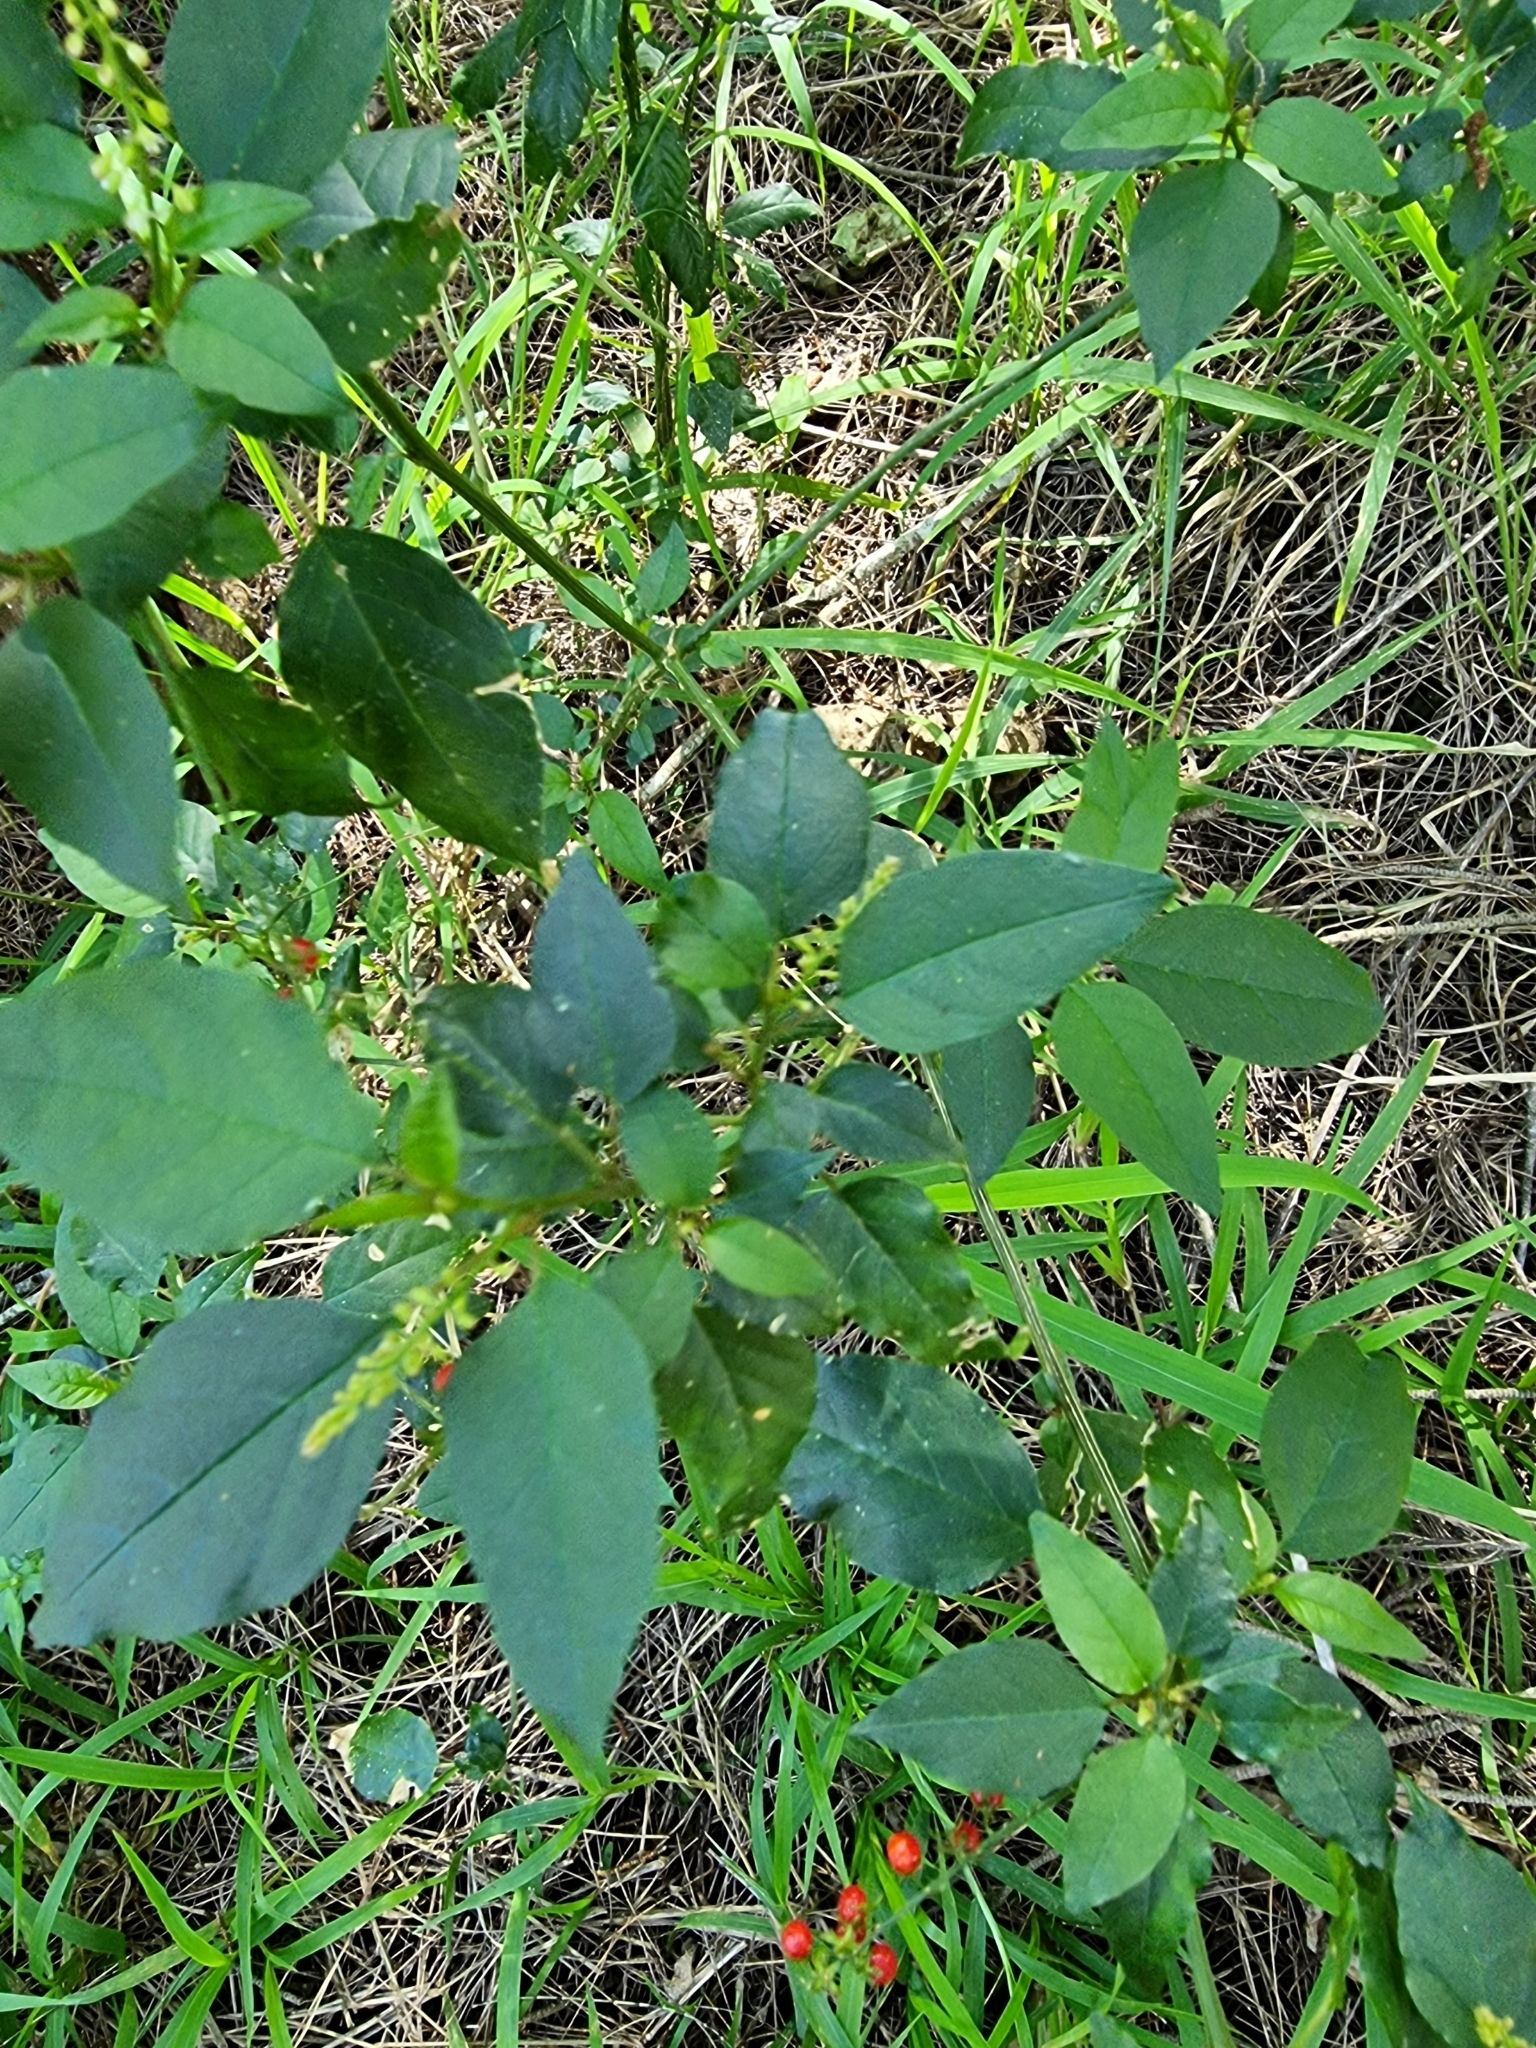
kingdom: Plantae
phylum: Tracheophyta
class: Magnoliopsida
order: Caryophyllales
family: Phytolaccaceae
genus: Rivina
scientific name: Rivina humilis
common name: Rougeplant
